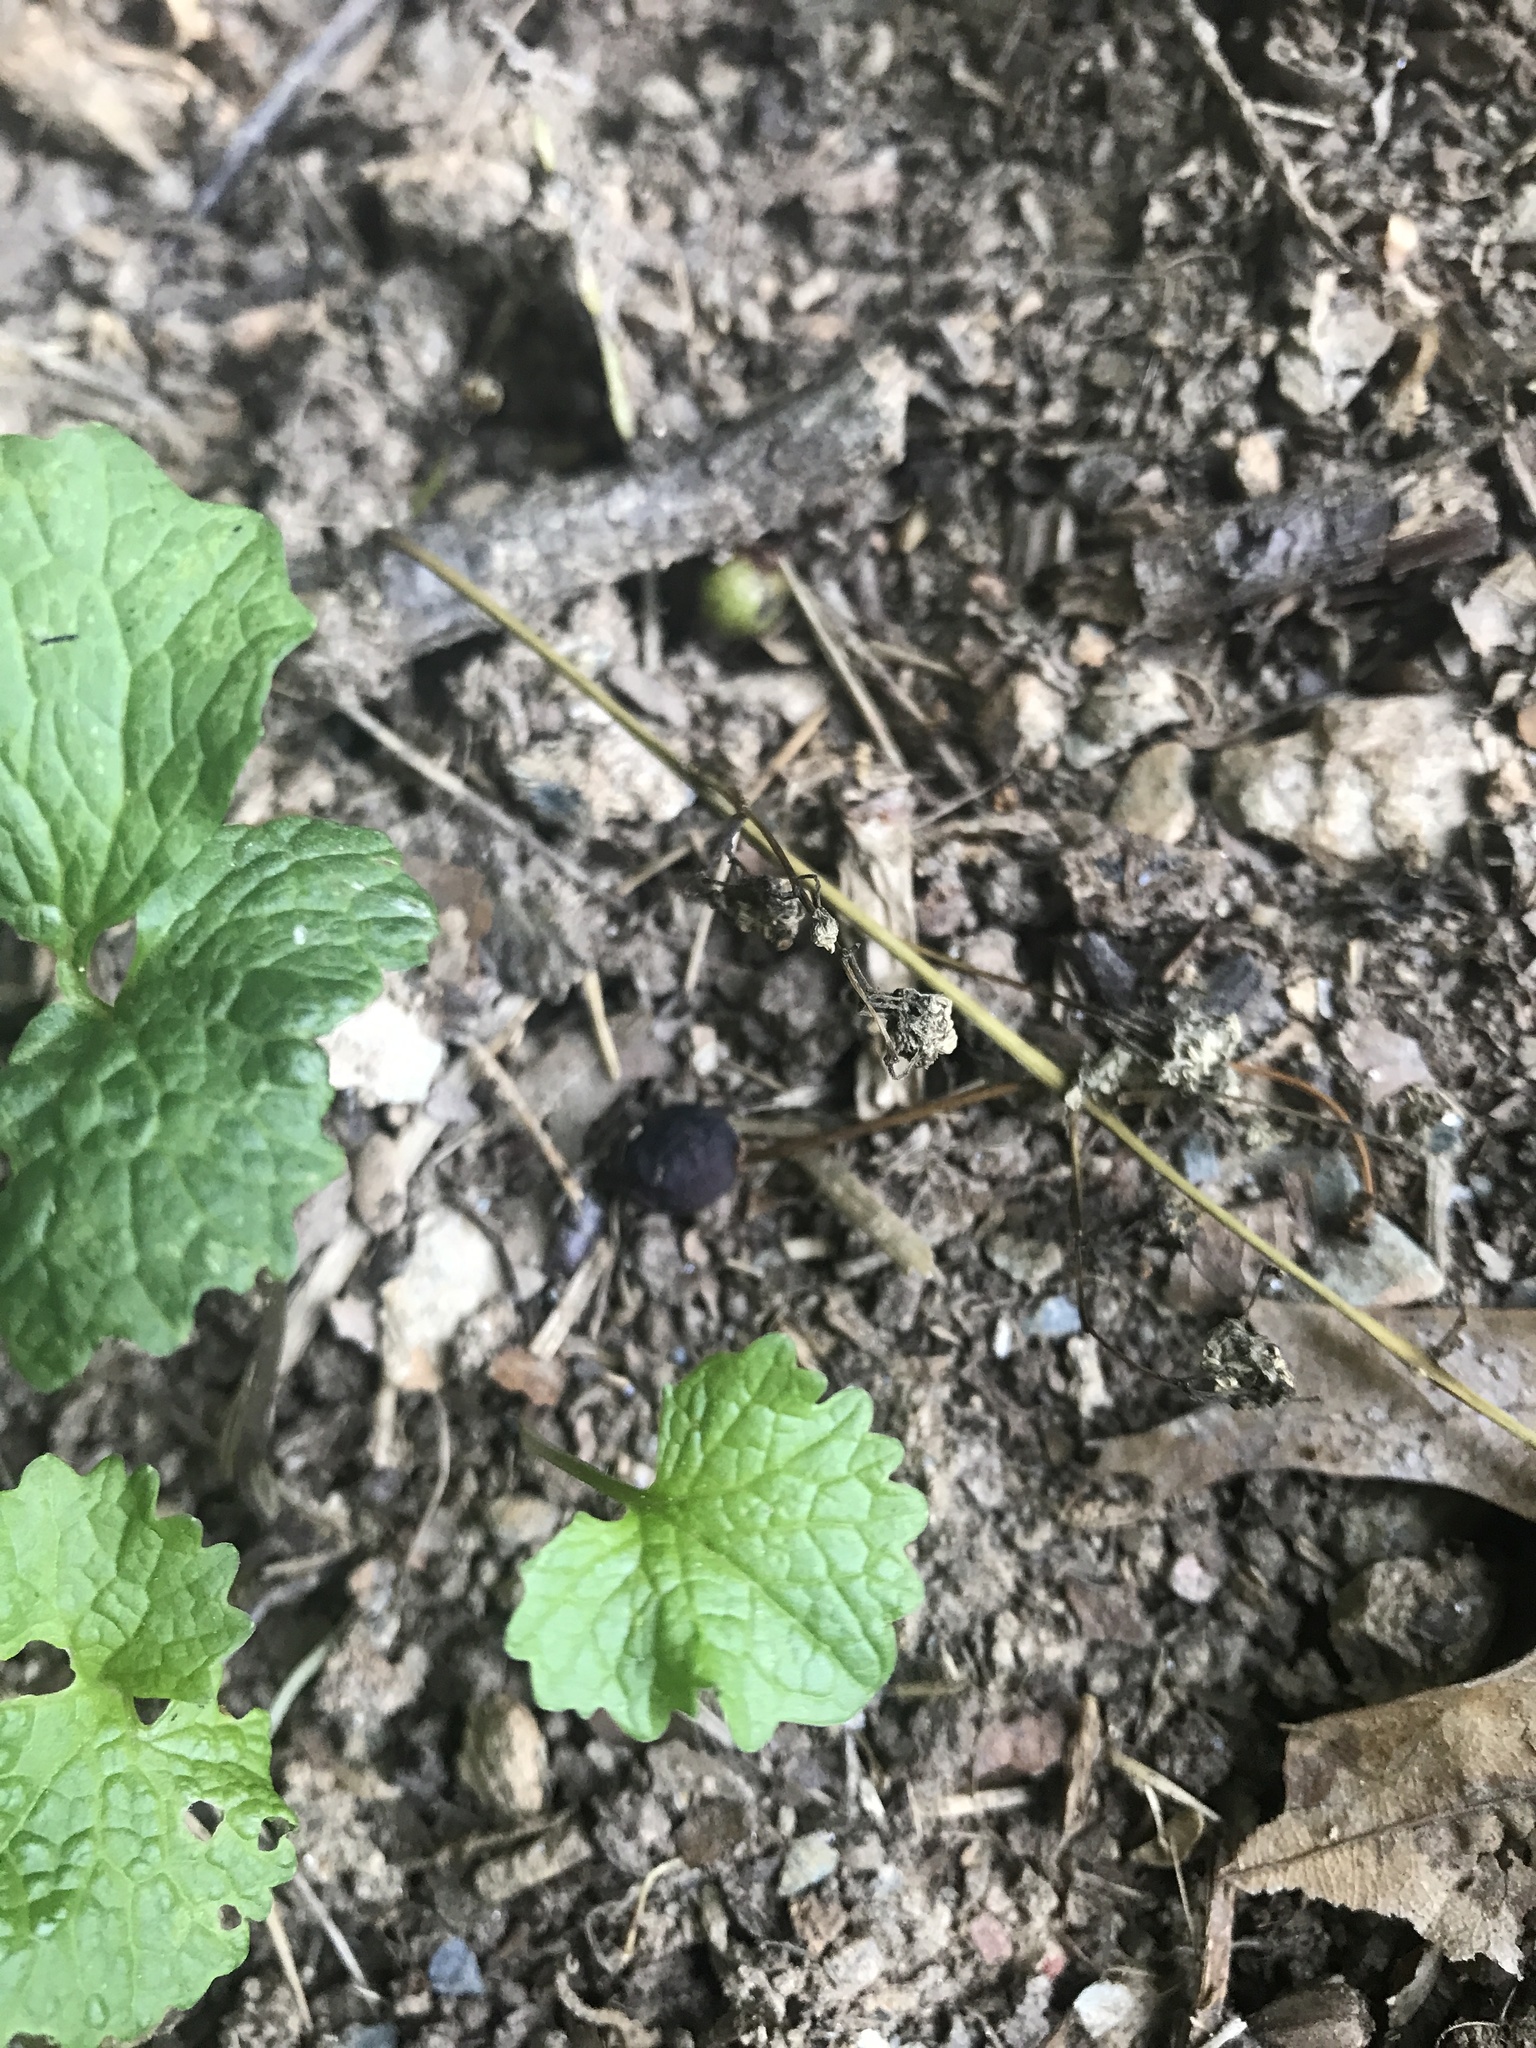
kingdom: Plantae
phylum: Tracheophyta
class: Magnoliopsida
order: Brassicales
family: Brassicaceae
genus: Alliaria
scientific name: Alliaria petiolata
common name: Garlic mustard
